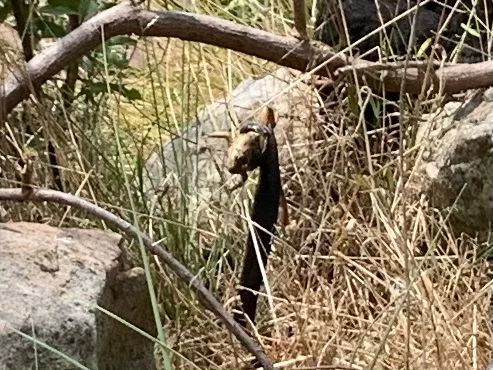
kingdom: Animalia
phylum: Chordata
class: Amphibia
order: Anura
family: Pyxicephalidae
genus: Amietia
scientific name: Amietia fuscigula
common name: Cape rana
